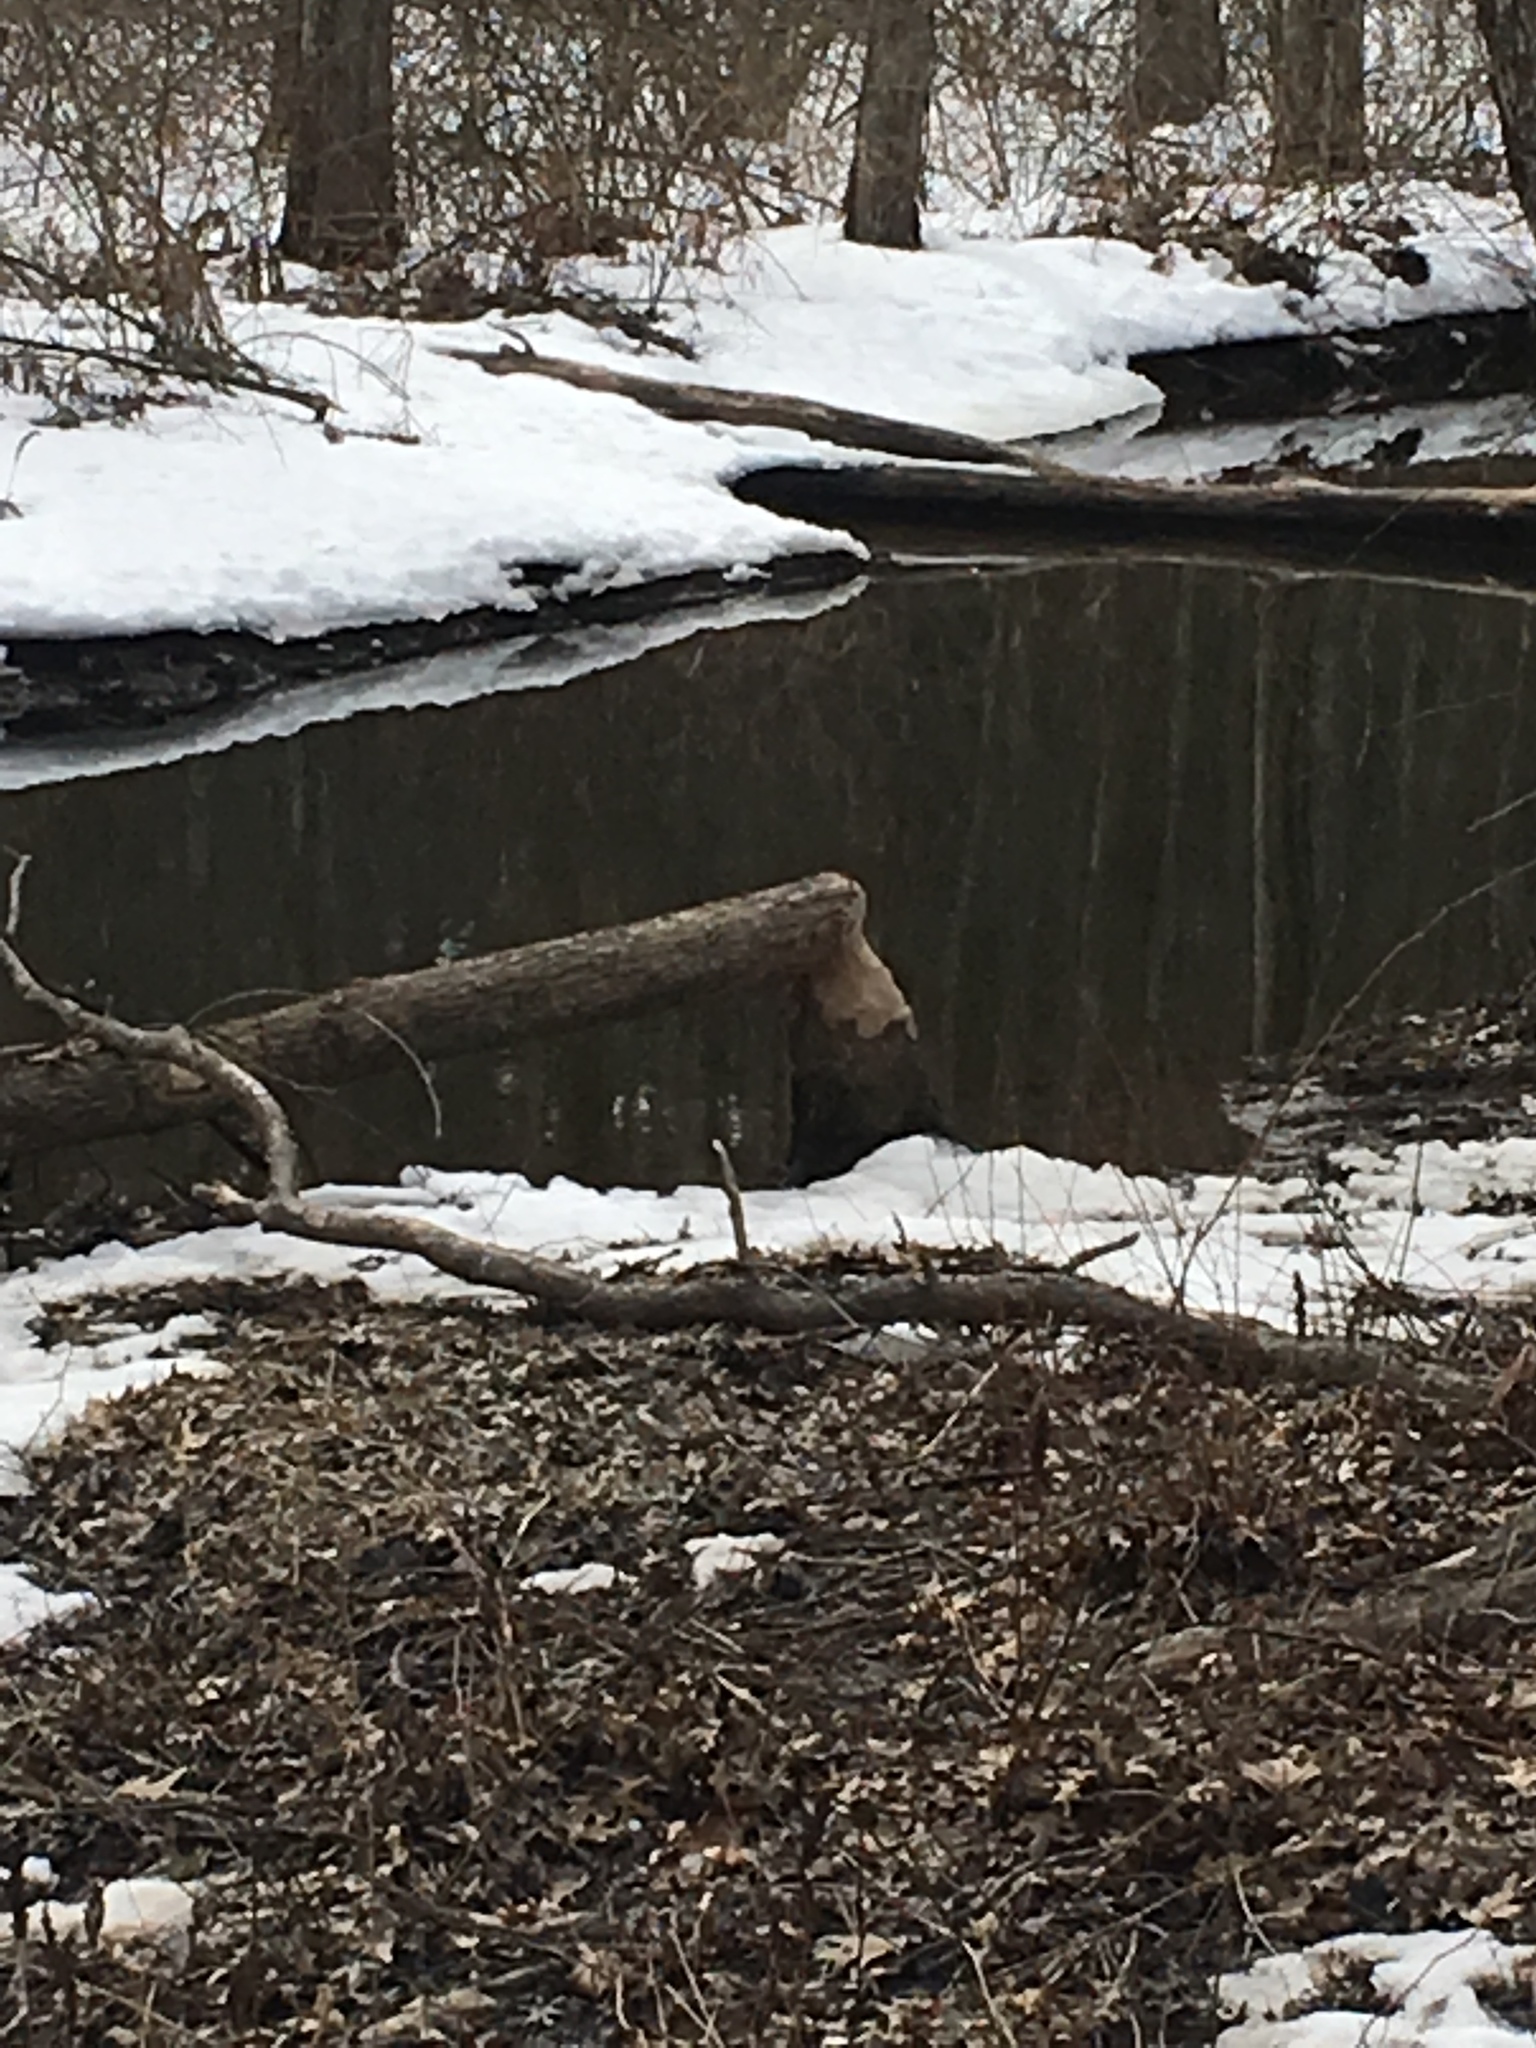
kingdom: Animalia
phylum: Chordata
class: Mammalia
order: Rodentia
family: Castoridae
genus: Castor
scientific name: Castor canadensis
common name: American beaver
